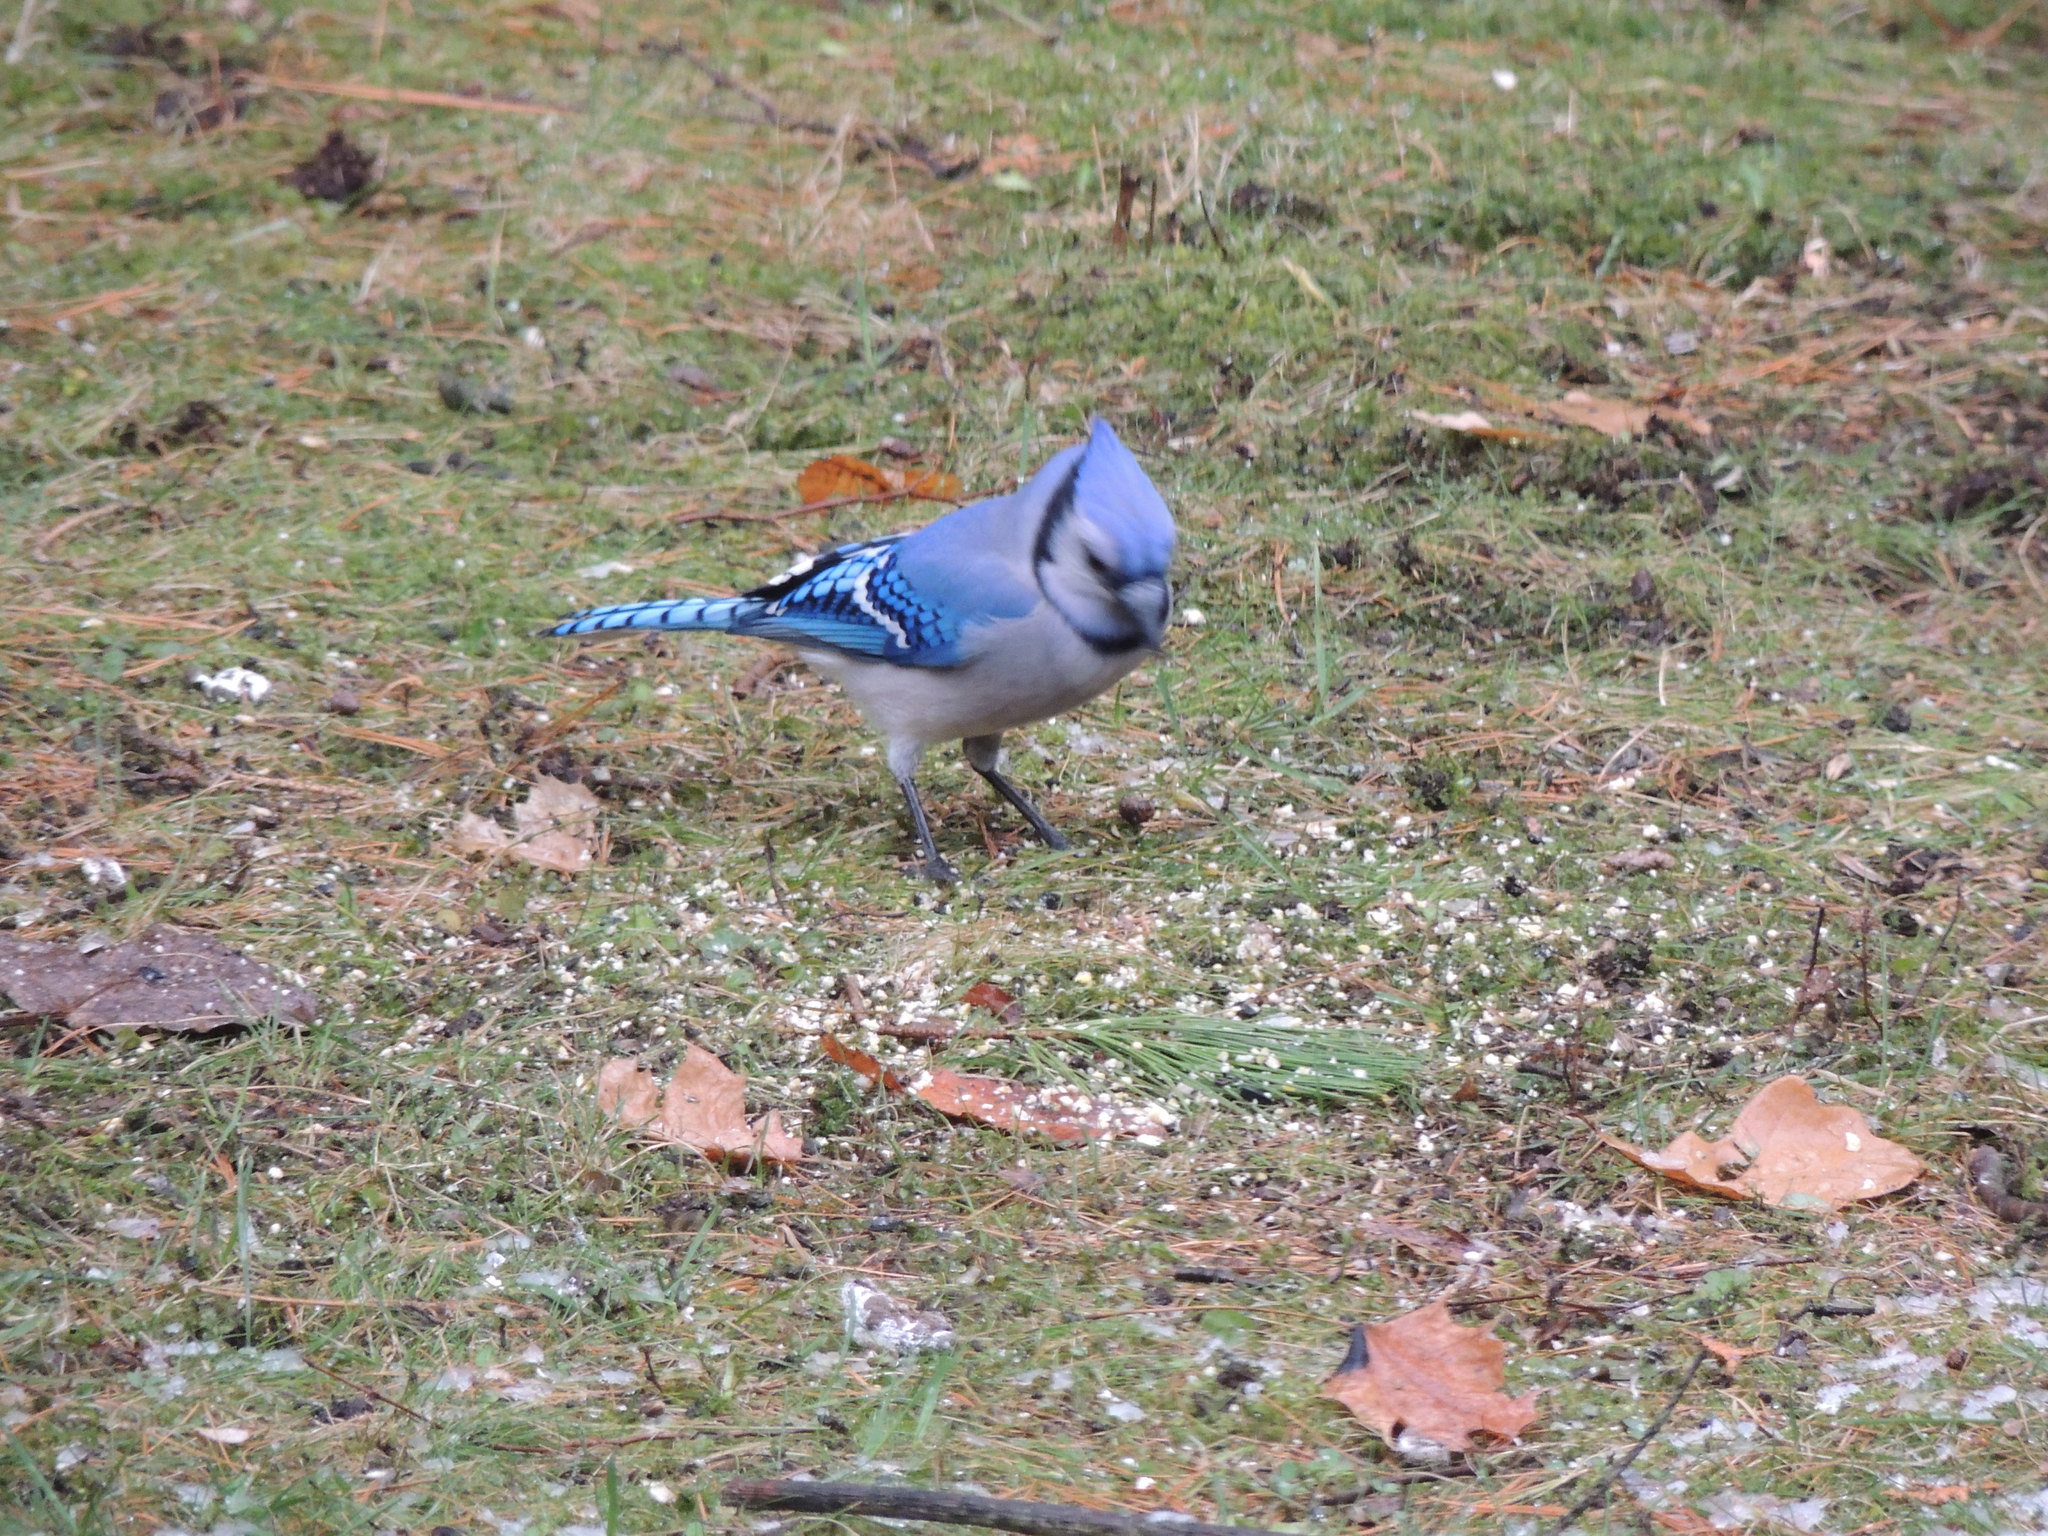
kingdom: Animalia
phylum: Chordata
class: Aves
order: Passeriformes
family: Corvidae
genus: Cyanocitta
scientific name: Cyanocitta cristata
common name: Blue jay
